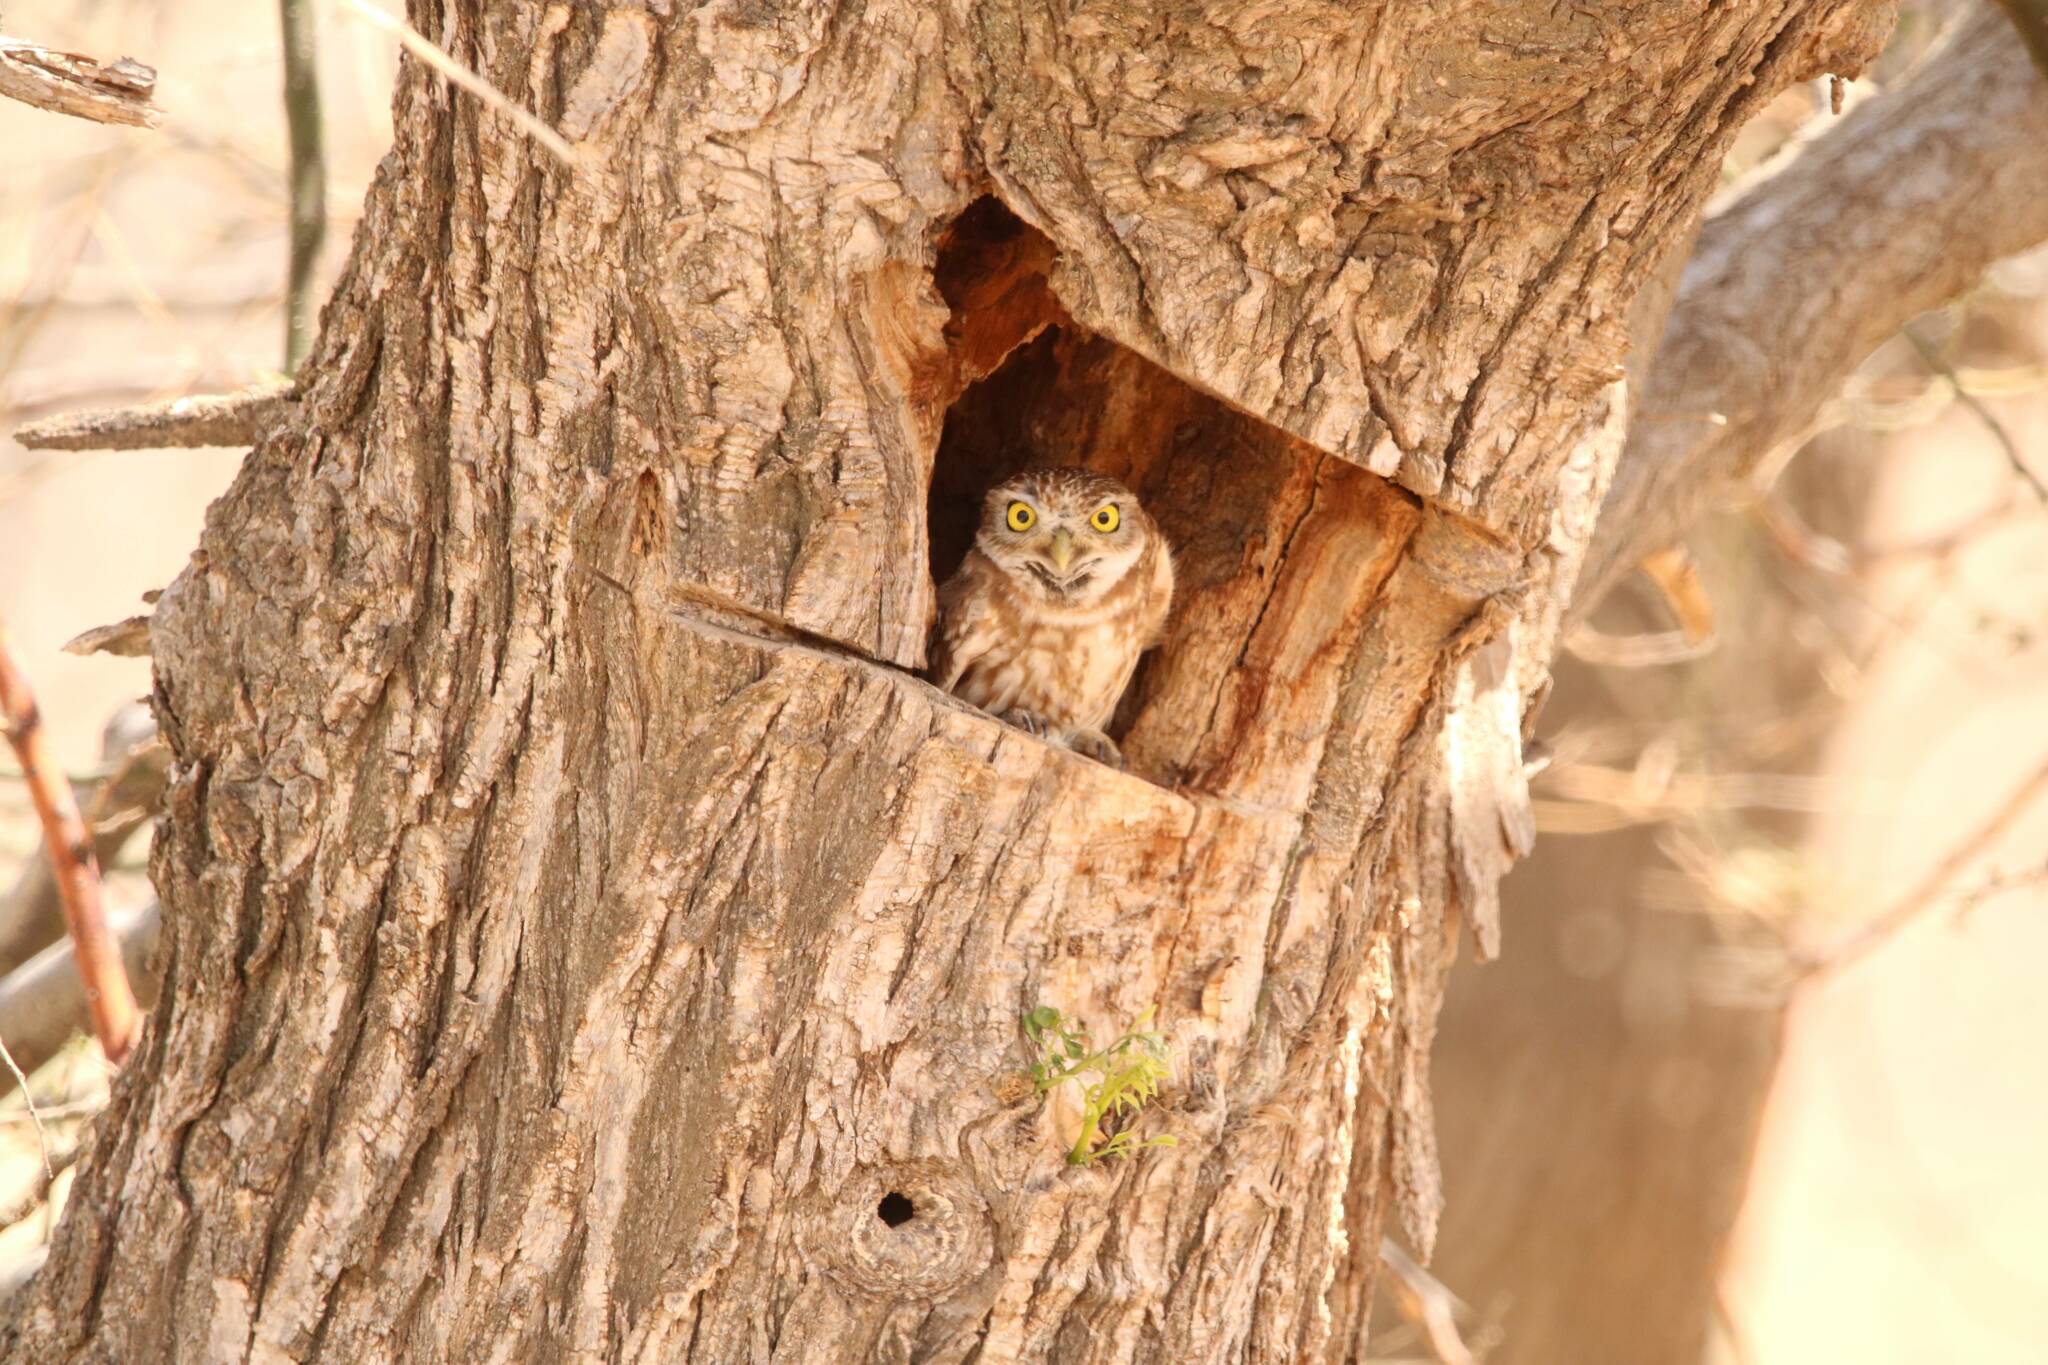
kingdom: Animalia
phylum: Chordata
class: Aves
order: Strigiformes
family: Strigidae
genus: Athene
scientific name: Athene noctua
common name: Little owl
